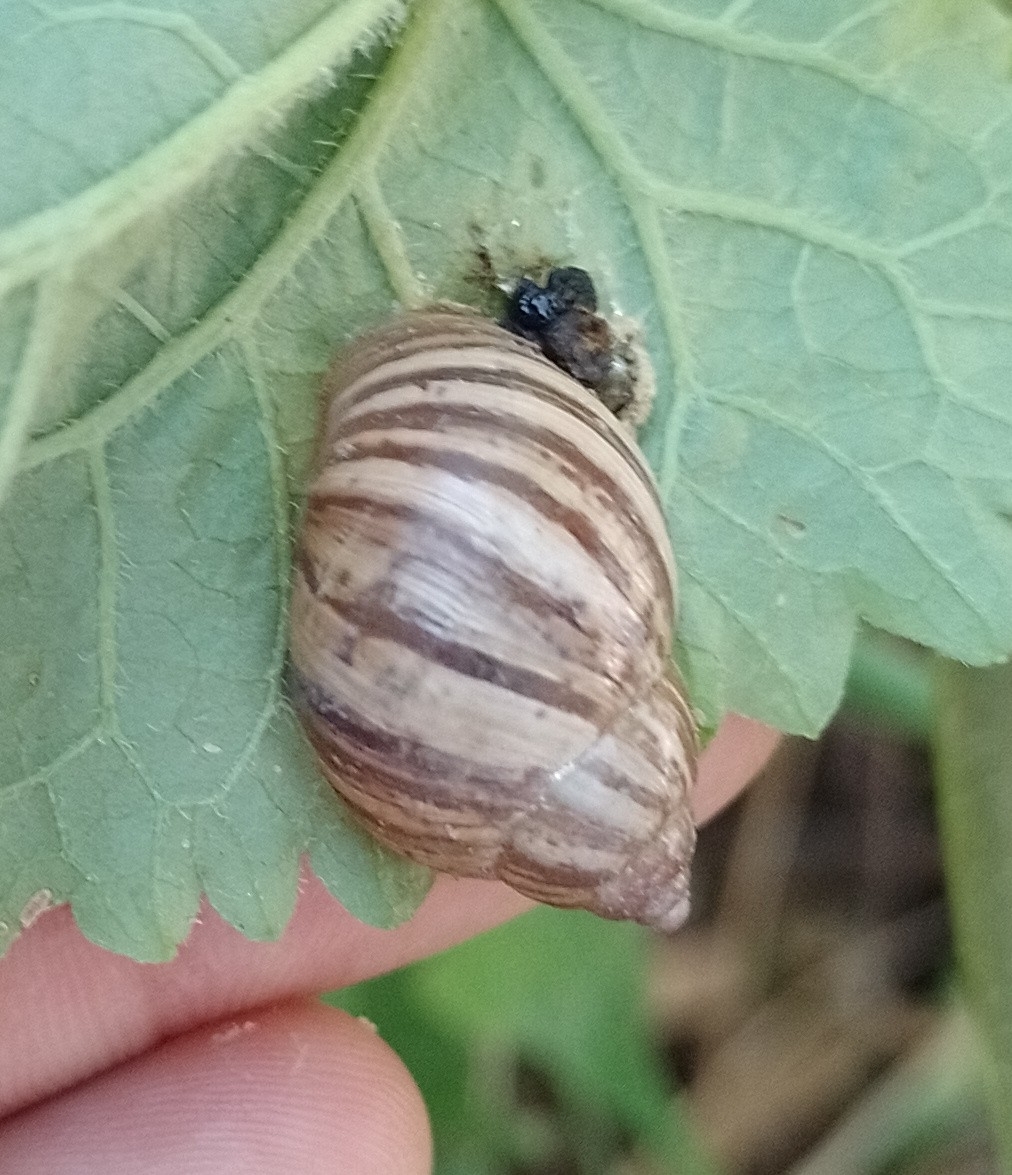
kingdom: Animalia
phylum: Mollusca
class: Gastropoda
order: Stylommatophora
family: Bulimulidae
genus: Bulimulus
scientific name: Bulimulus bonariensis
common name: Snail
